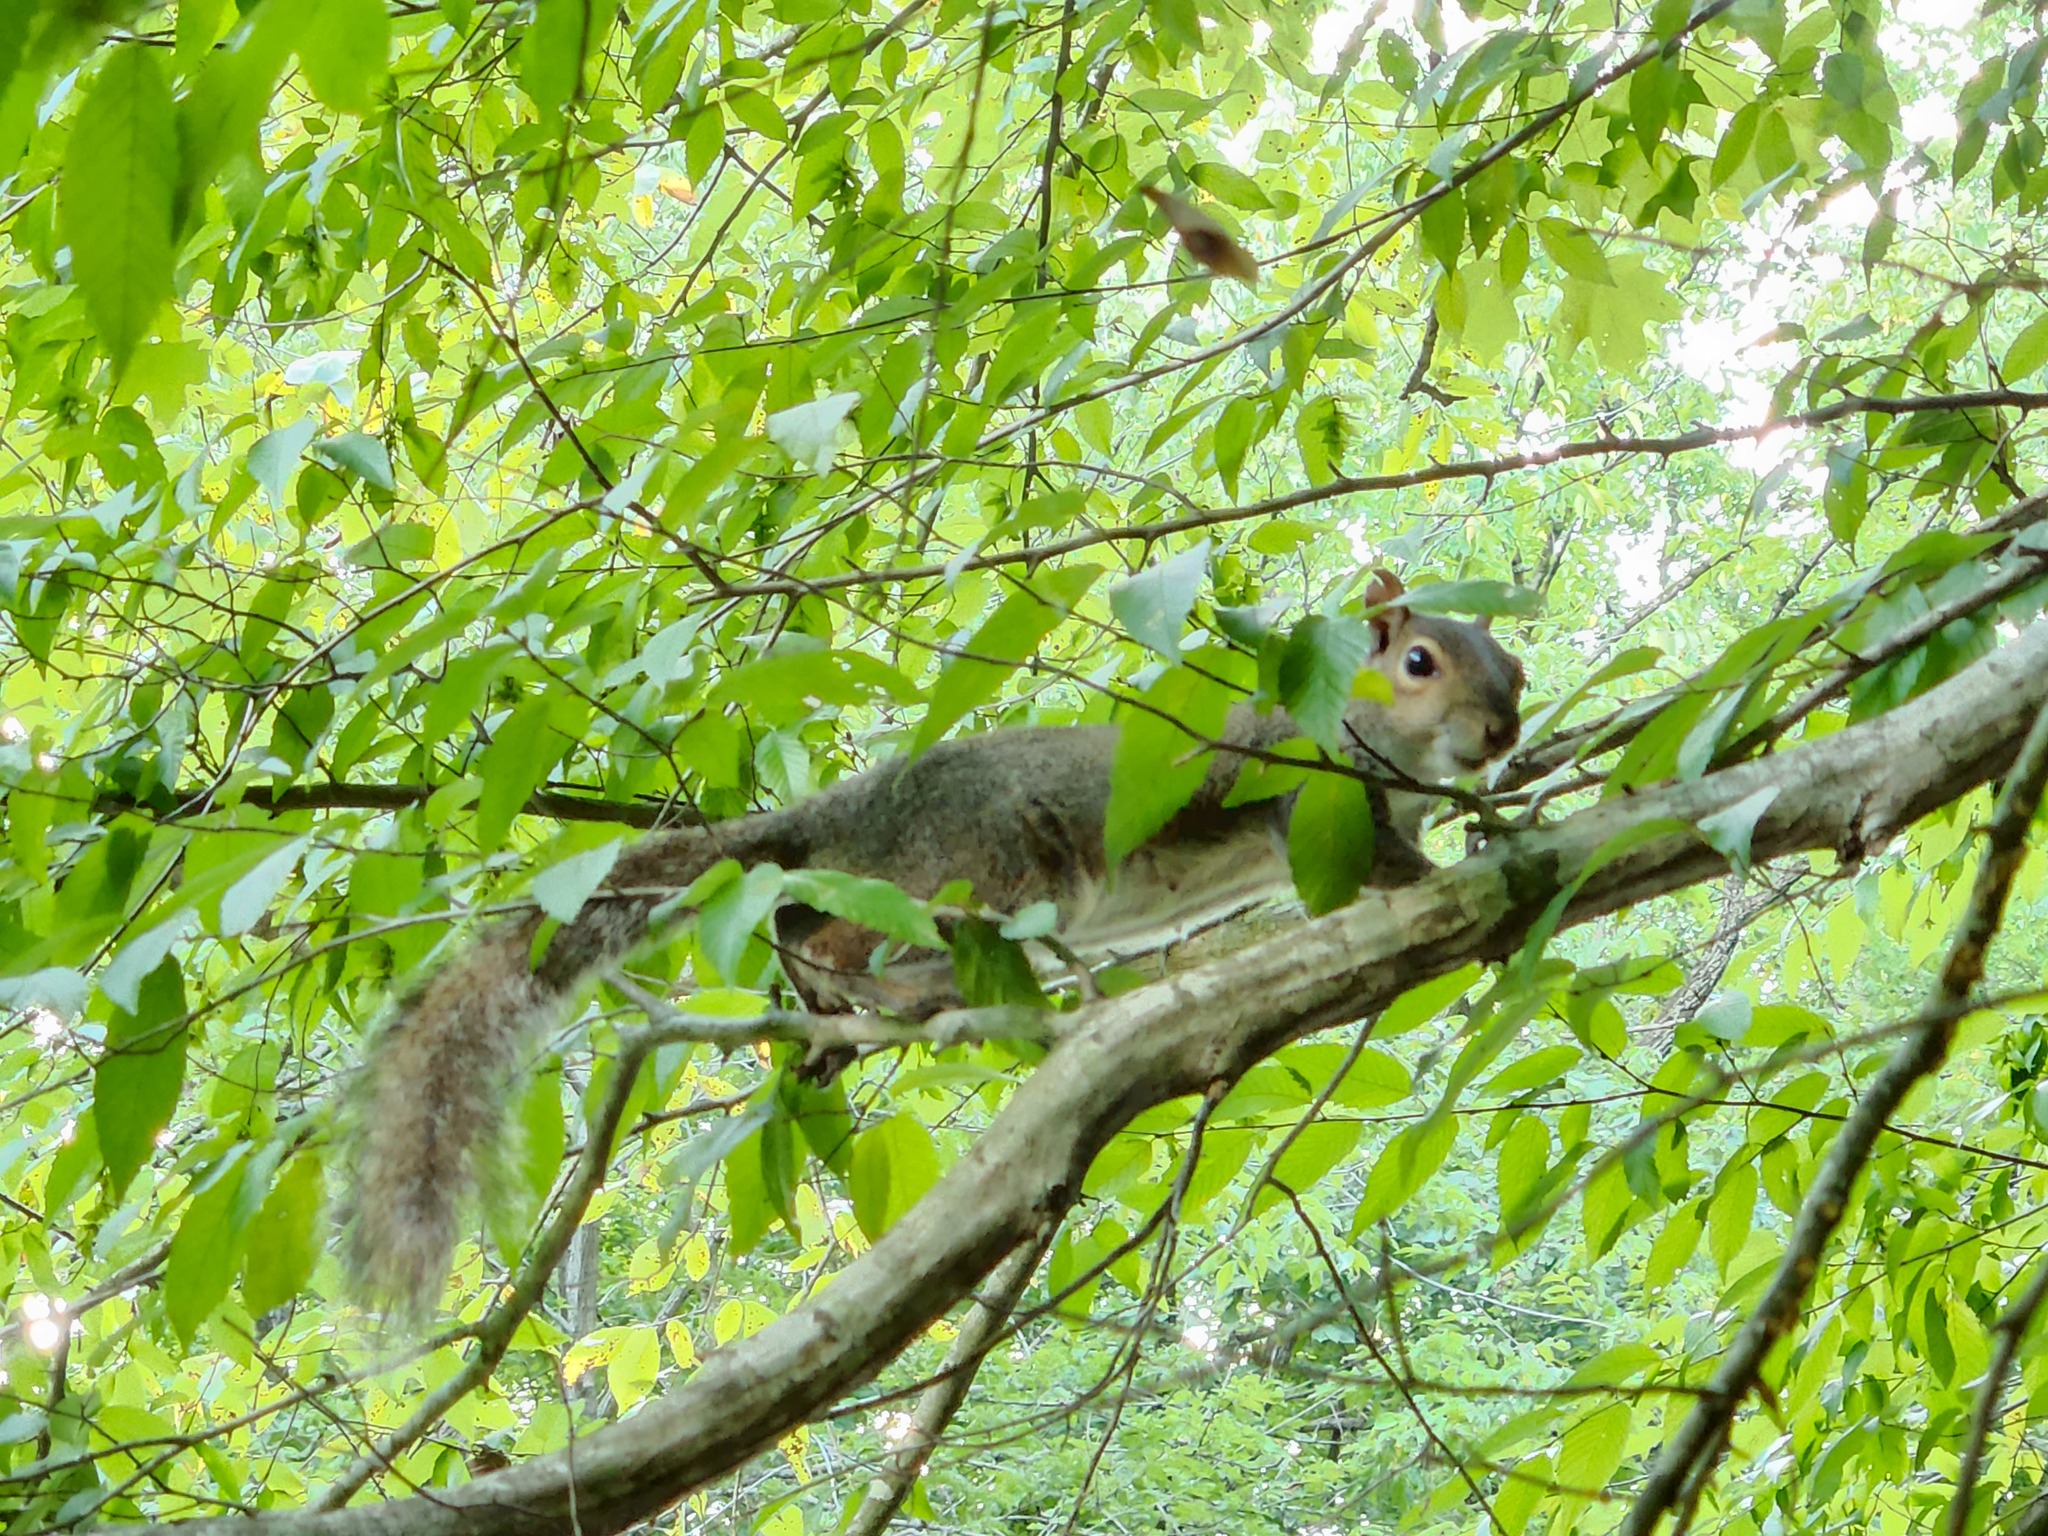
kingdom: Animalia
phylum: Chordata
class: Mammalia
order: Rodentia
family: Sciuridae
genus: Sciurus
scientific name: Sciurus carolinensis
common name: Eastern gray squirrel
